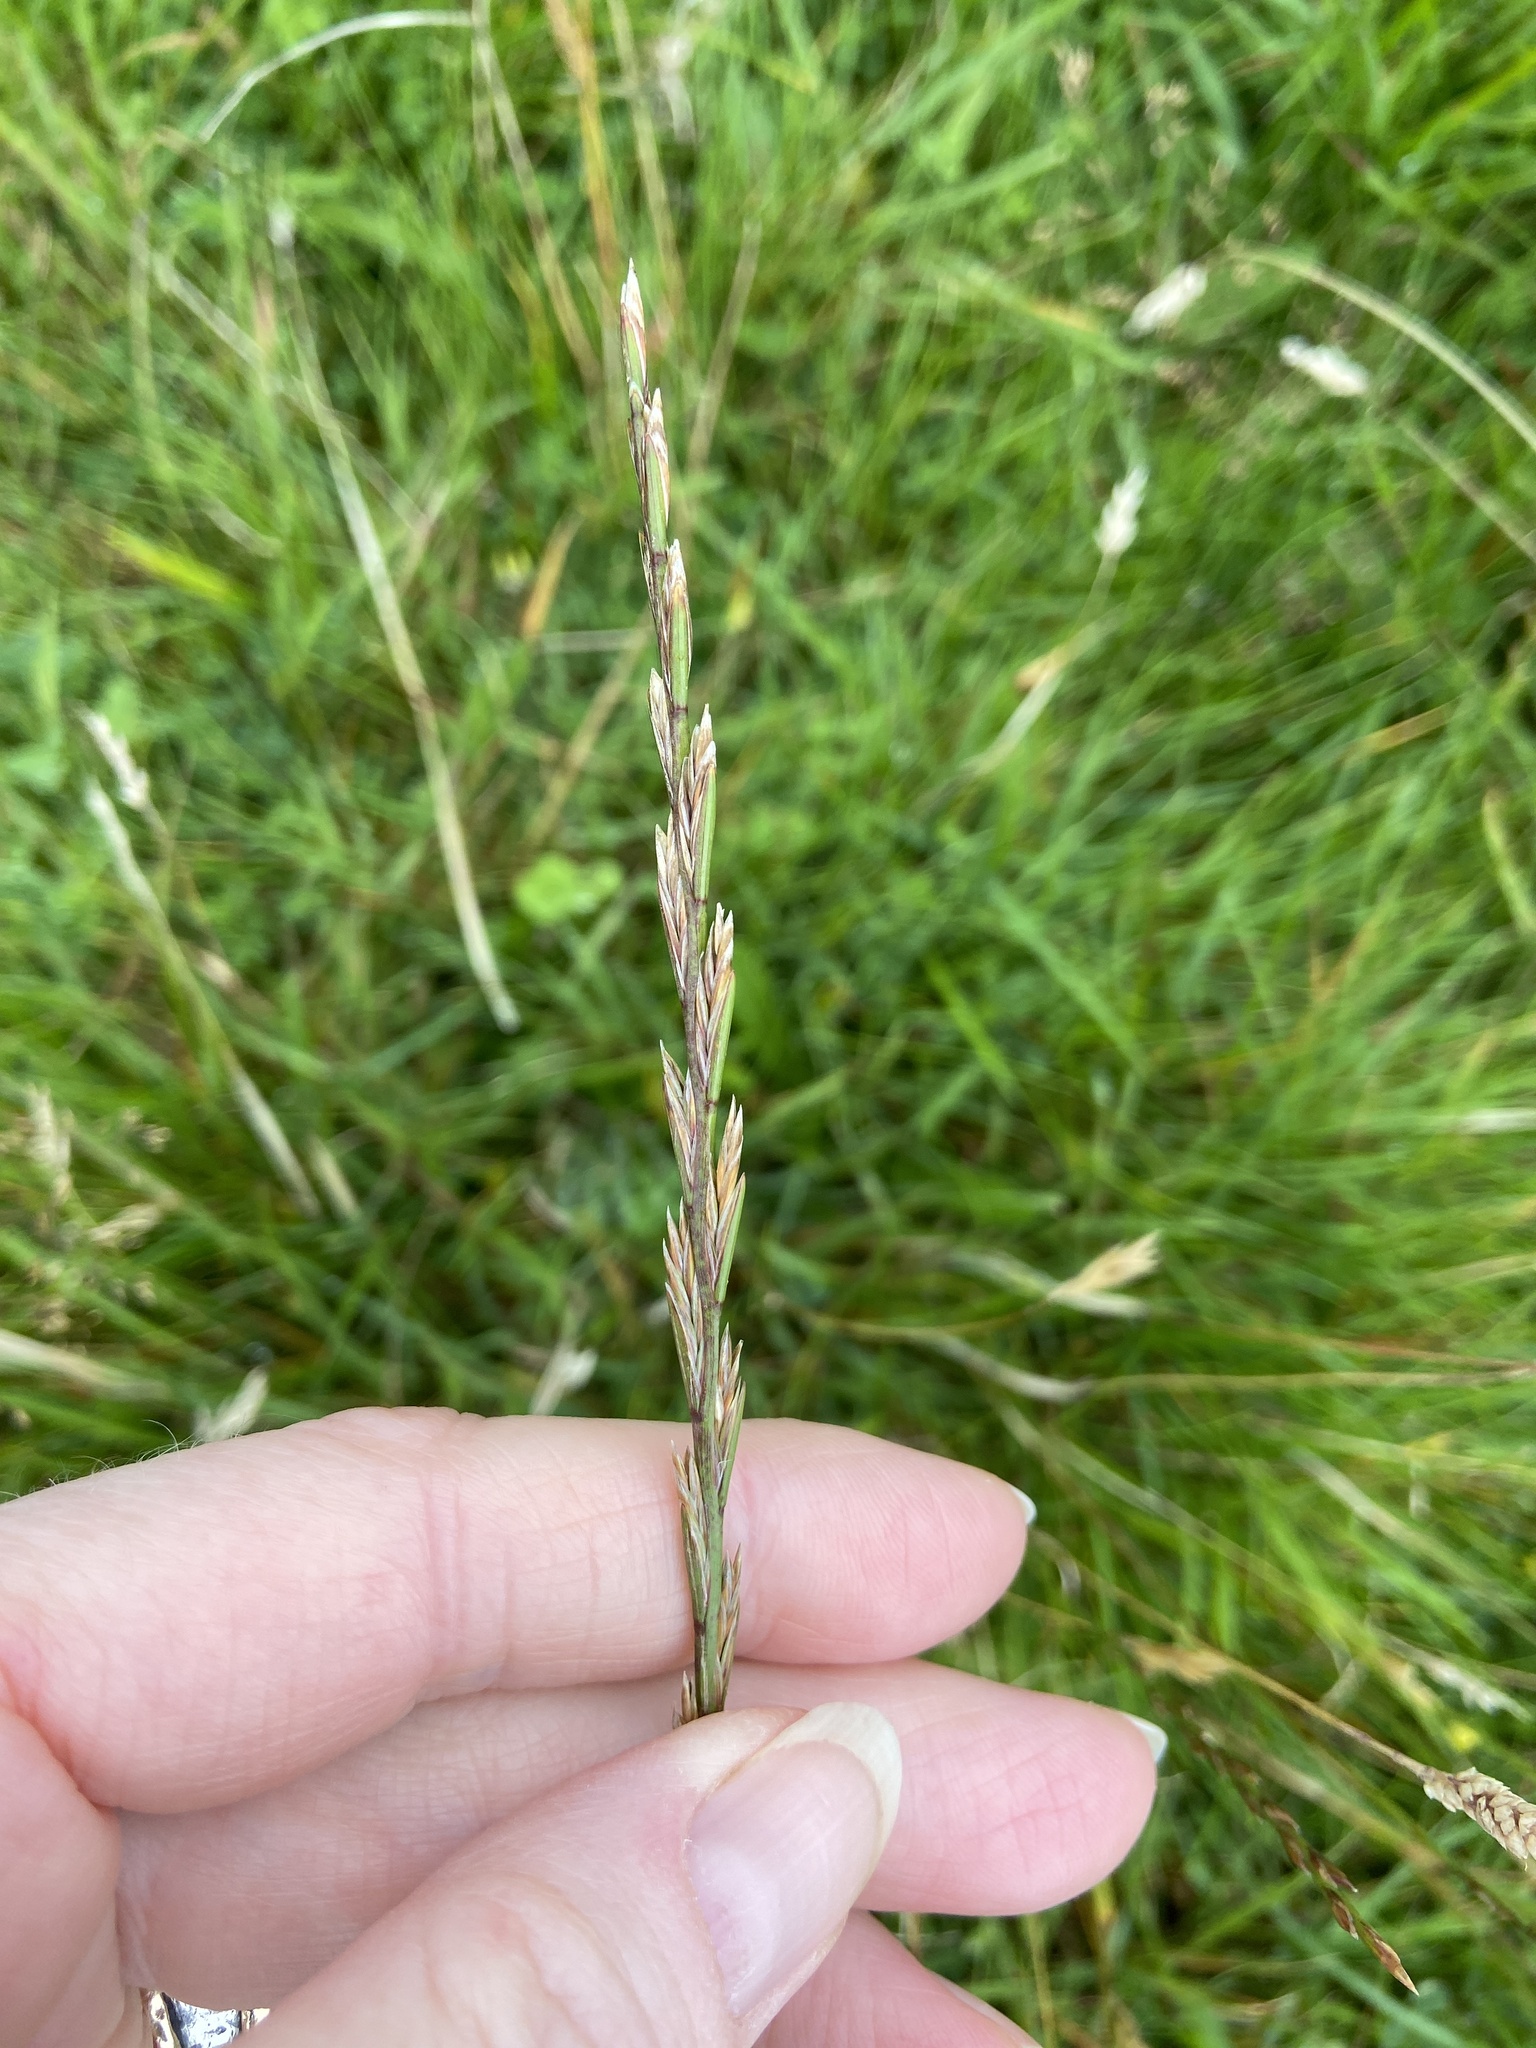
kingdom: Plantae
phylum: Tracheophyta
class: Liliopsida
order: Poales
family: Poaceae
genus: Lolium
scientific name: Lolium perenne
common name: Perennial ryegrass
